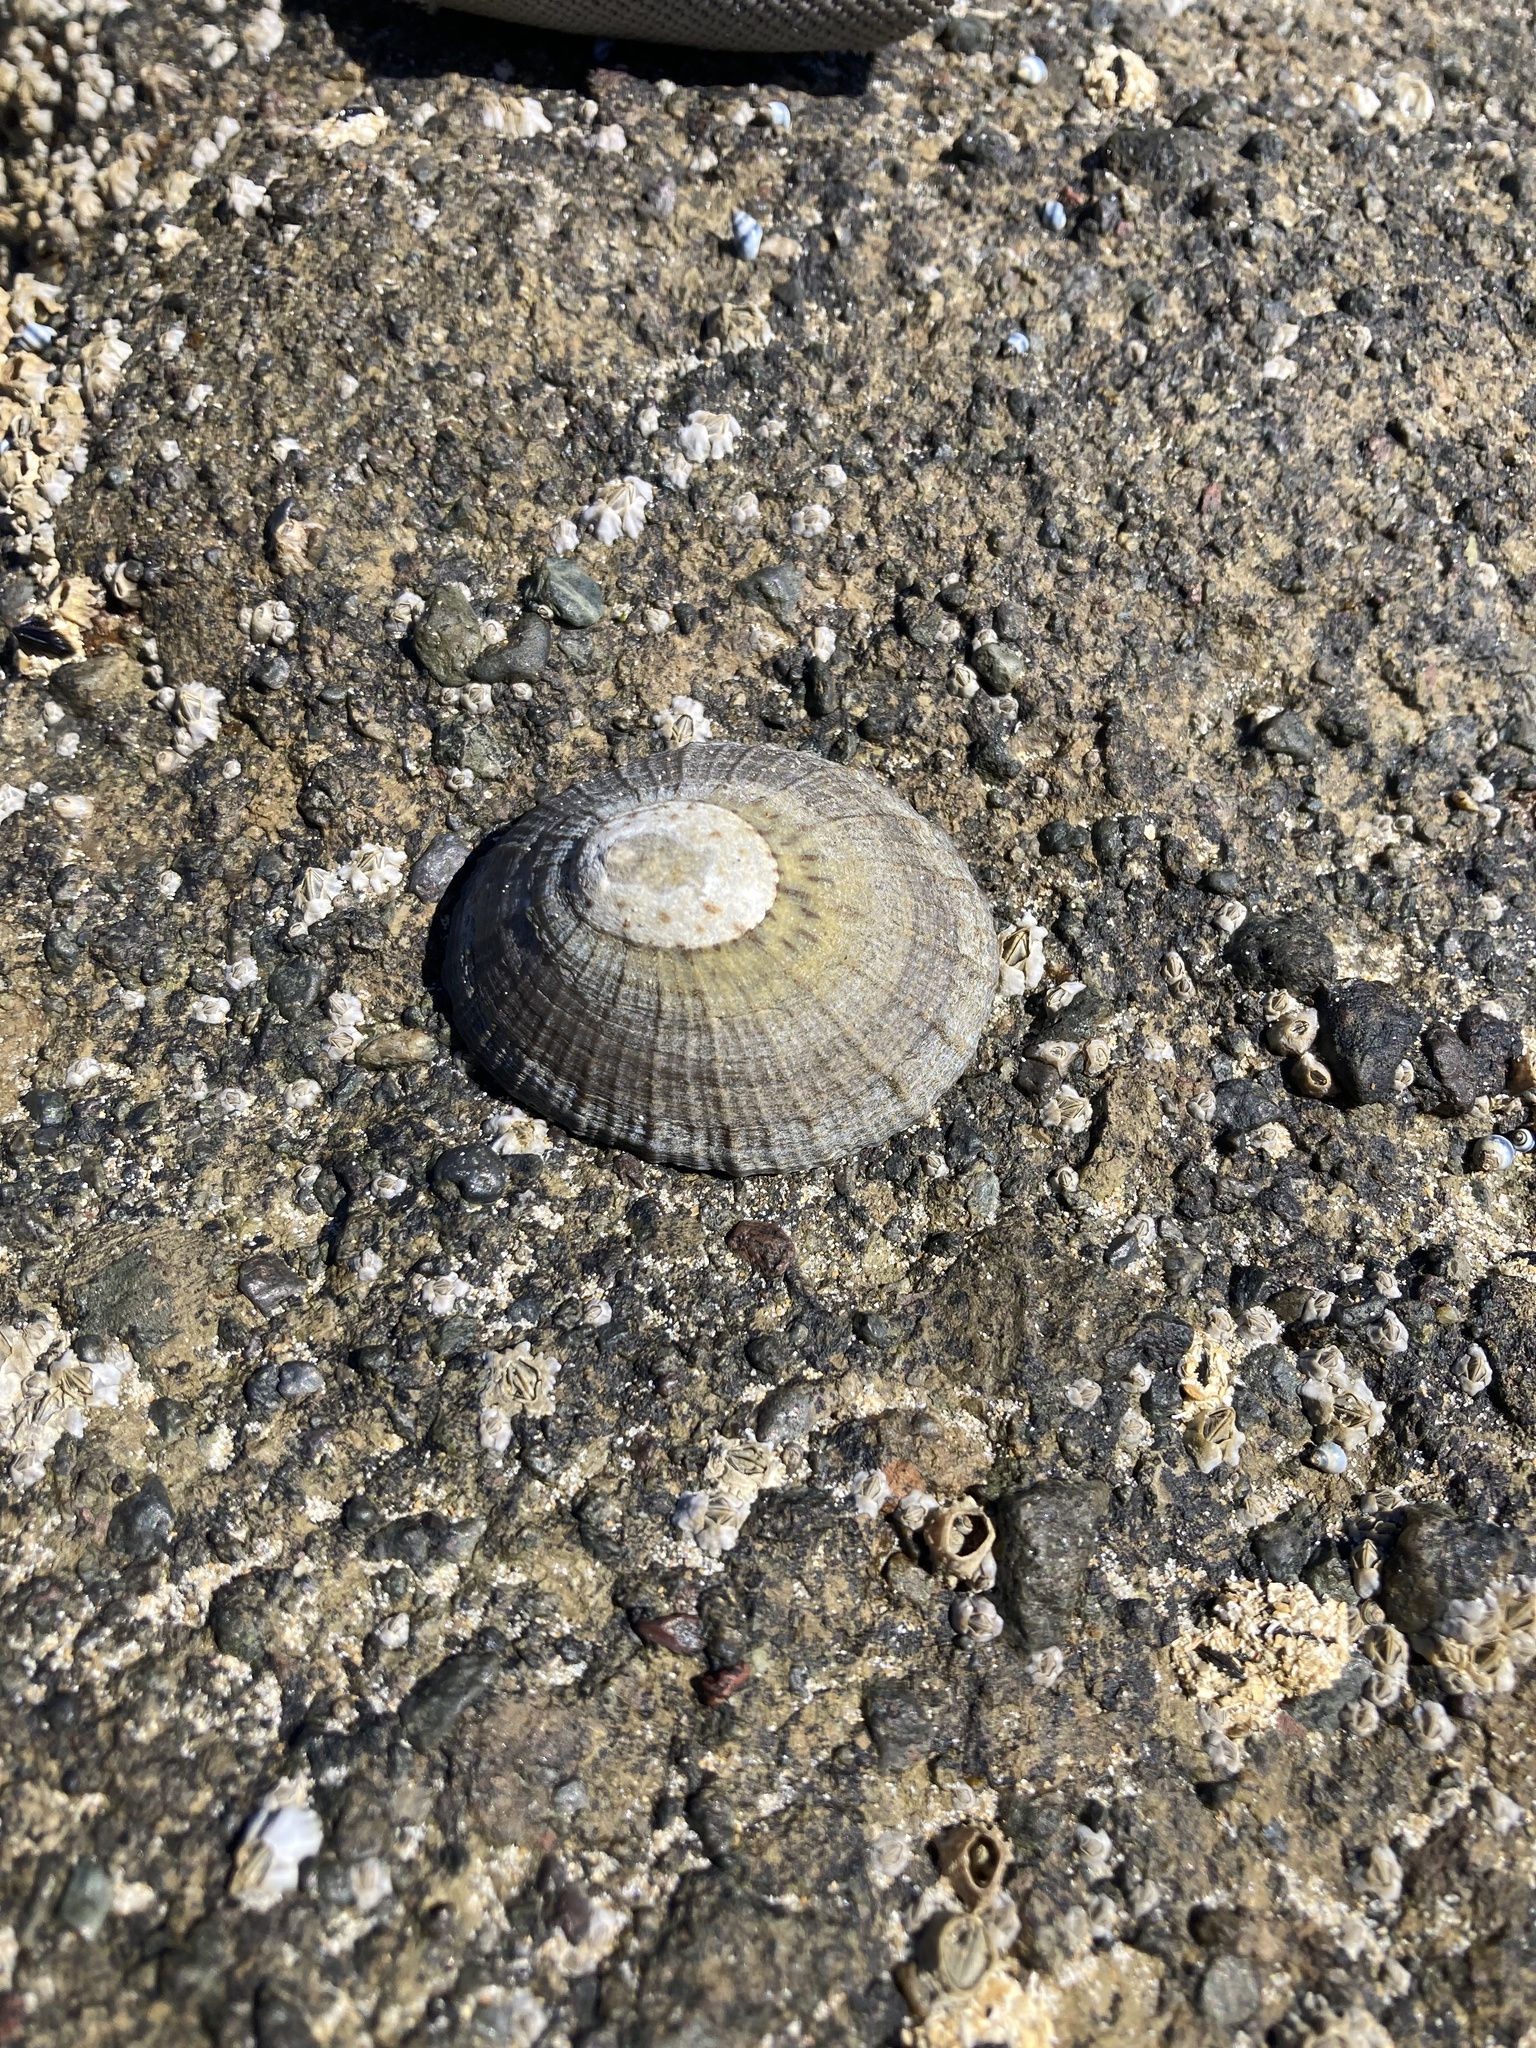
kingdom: Animalia
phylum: Mollusca
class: Gastropoda
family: Nacellidae
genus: Cellana
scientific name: Cellana radians
